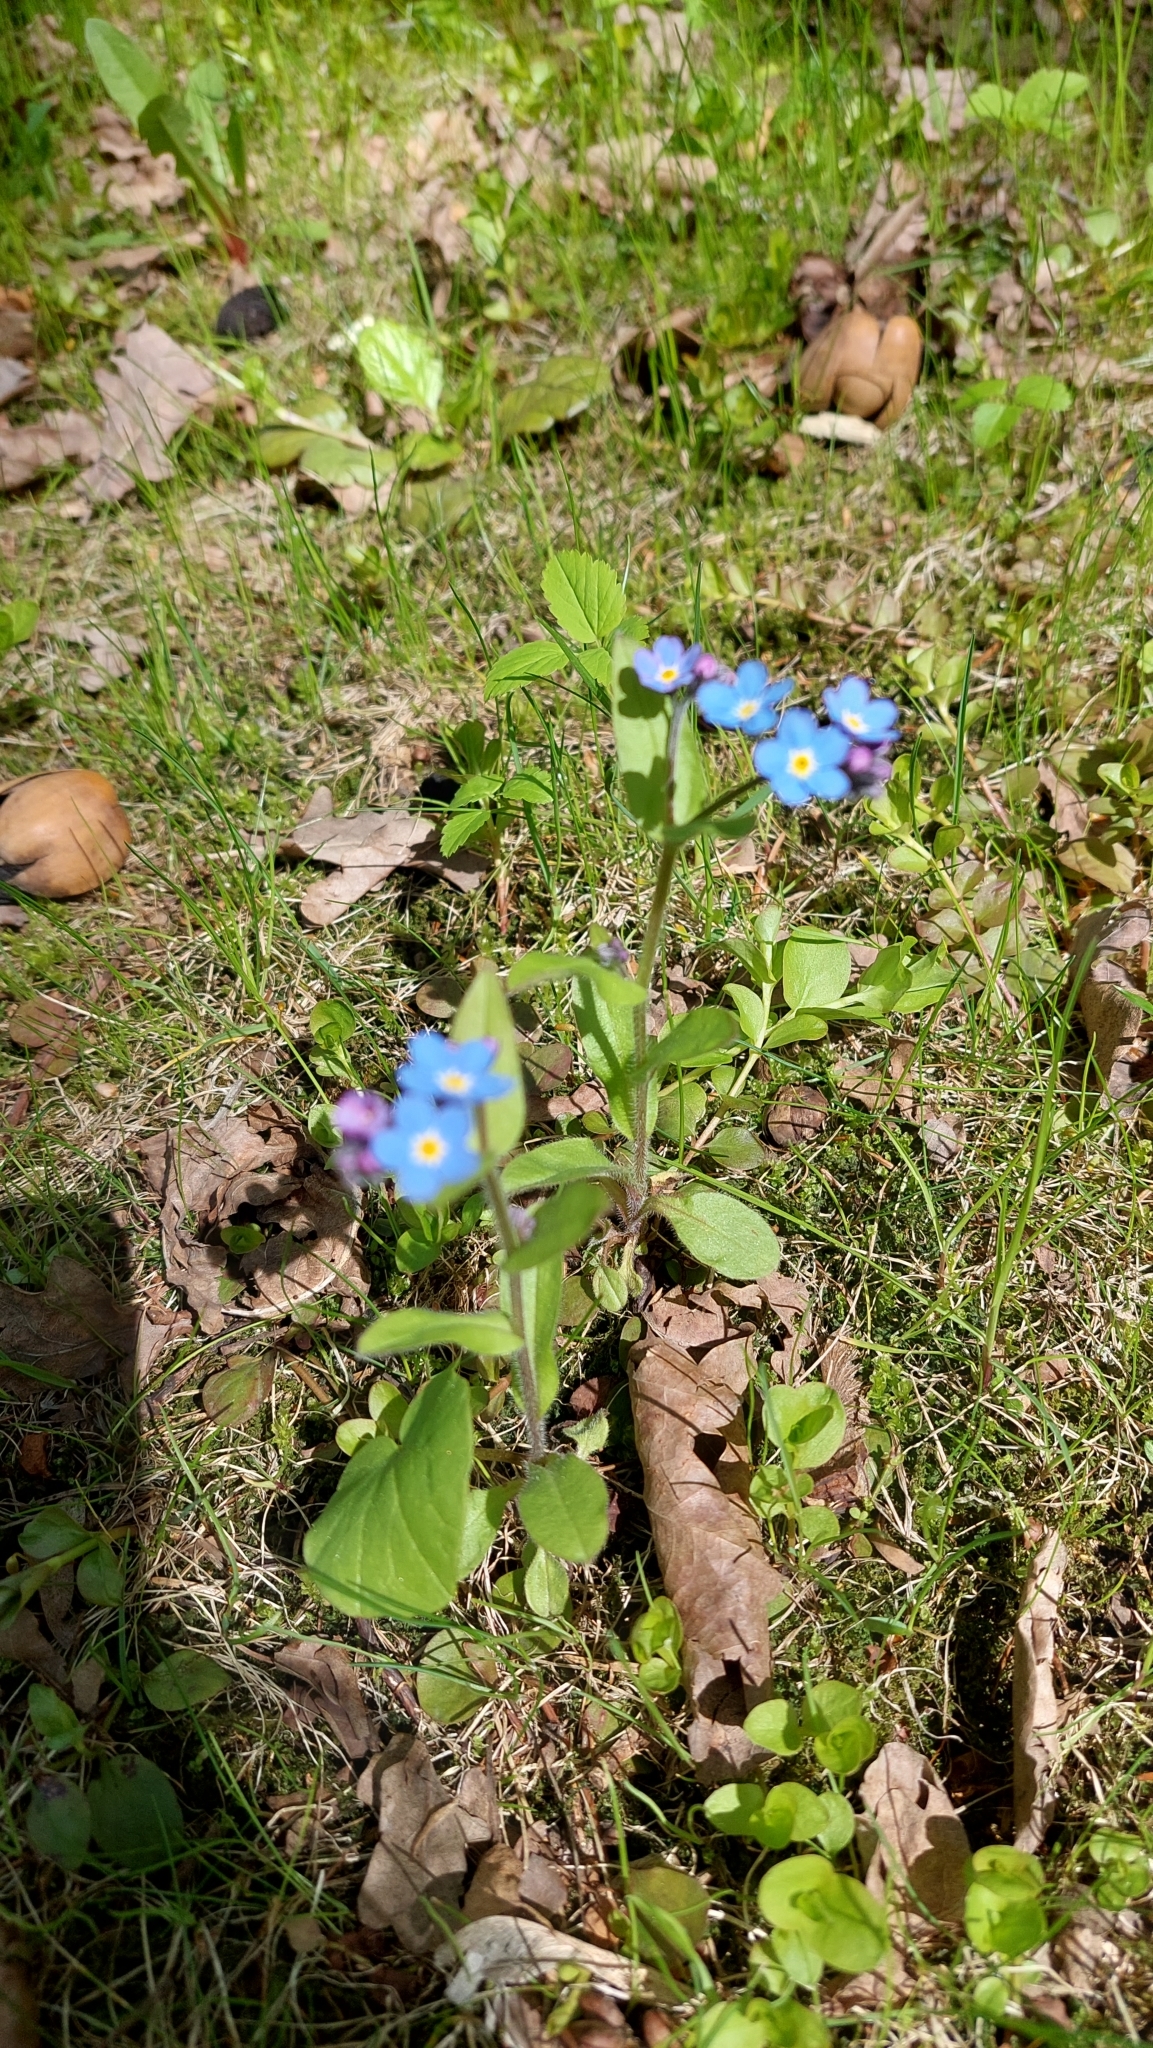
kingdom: Plantae
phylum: Tracheophyta
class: Magnoliopsida
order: Boraginales
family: Boraginaceae
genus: Myosotis
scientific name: Myosotis sylvatica
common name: Wood forget-me-not
